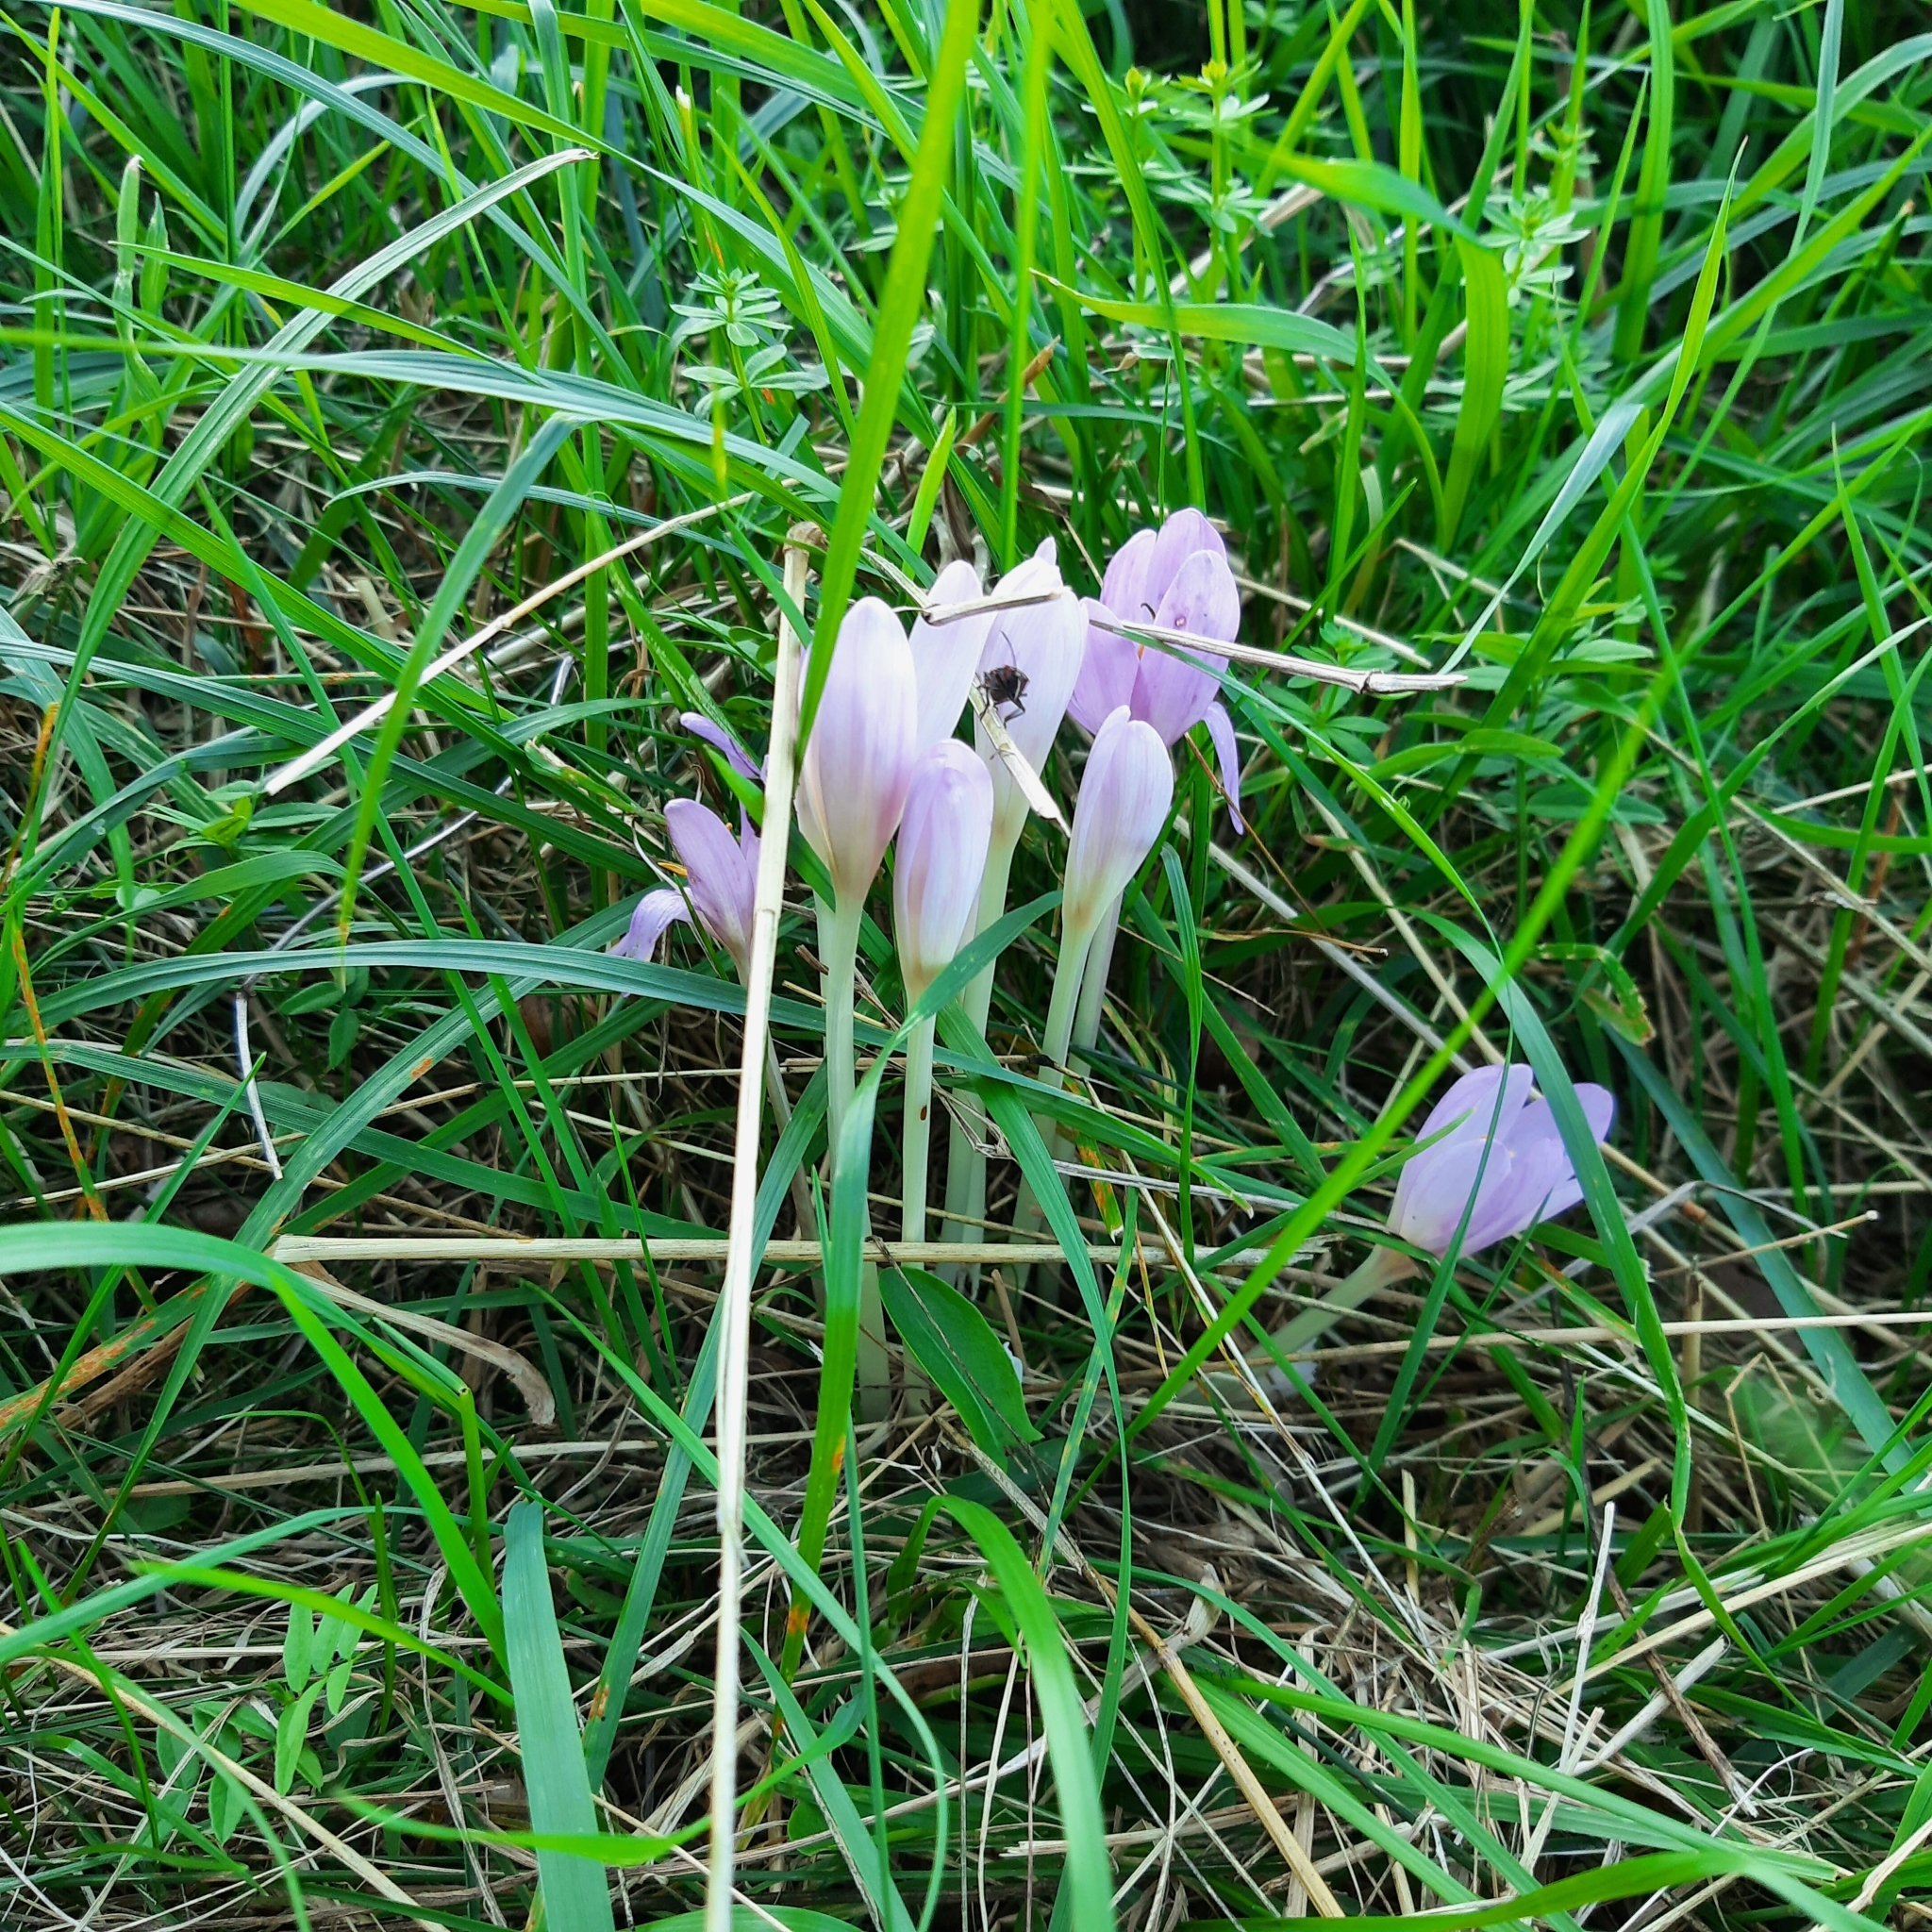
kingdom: Plantae
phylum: Tracheophyta
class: Liliopsida
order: Liliales
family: Colchicaceae
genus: Colchicum
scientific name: Colchicum autumnale
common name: Autumn crocus
